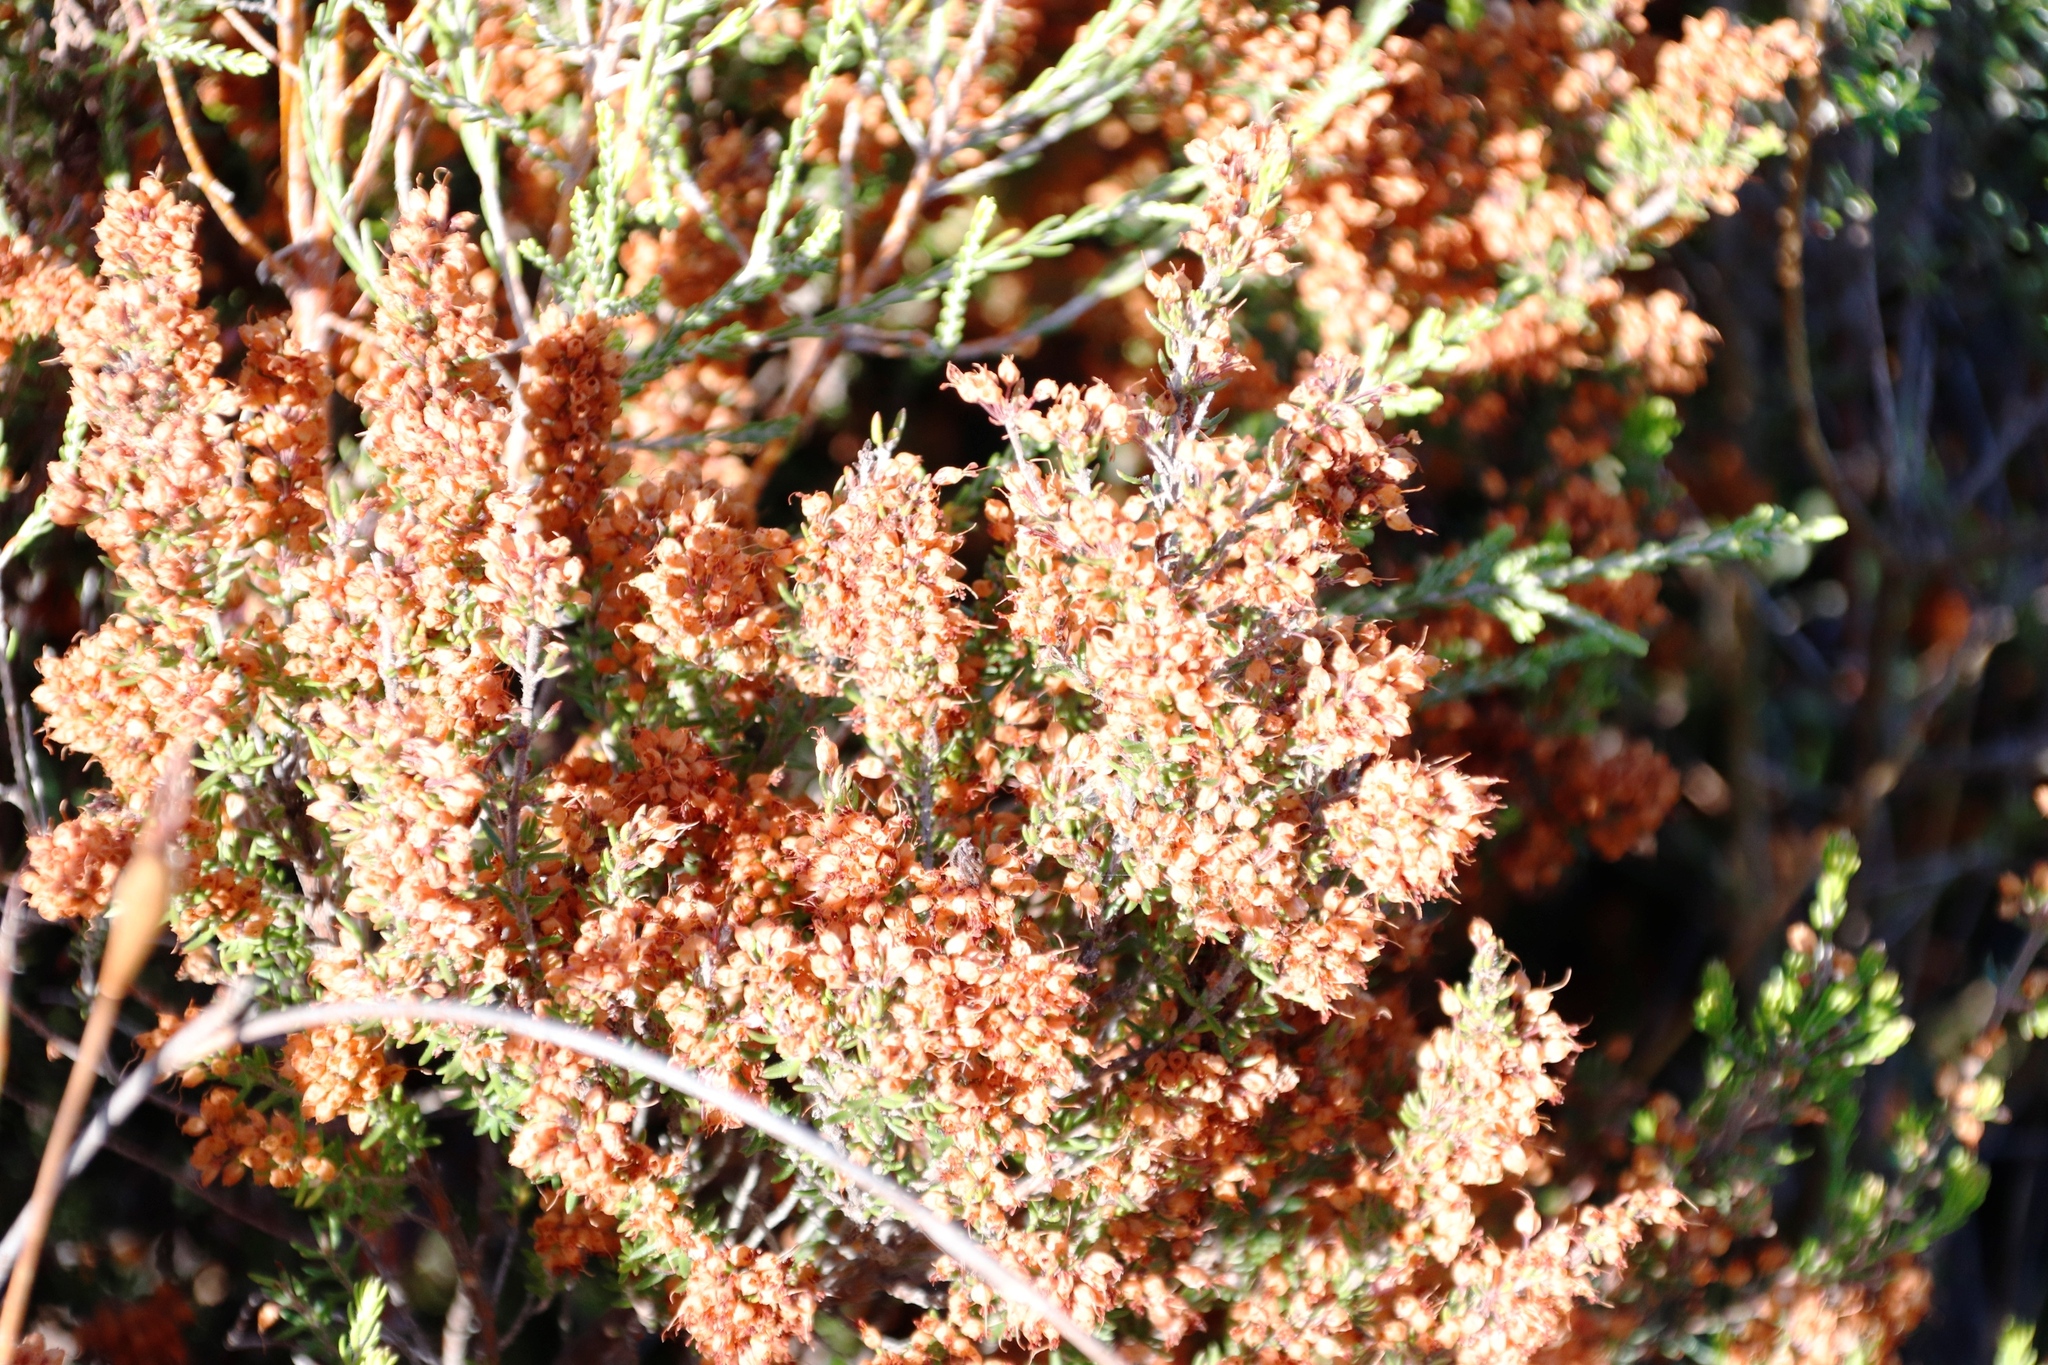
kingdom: Plantae
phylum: Tracheophyta
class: Magnoliopsida
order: Ericales
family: Ericaceae
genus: Erica
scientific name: Erica nudiflora
